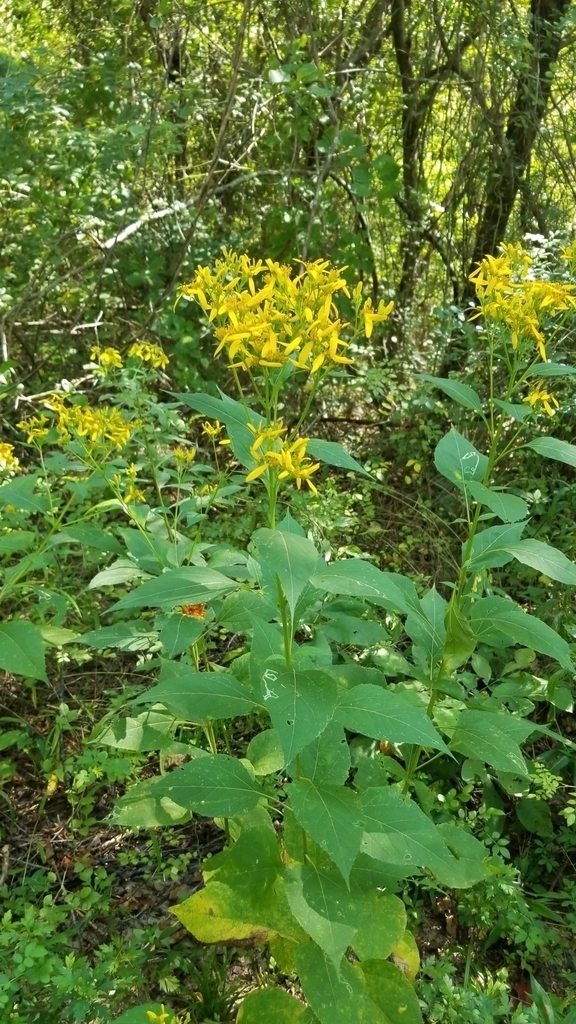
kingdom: Plantae
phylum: Tracheophyta
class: Magnoliopsida
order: Asterales
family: Asteraceae
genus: Verbesina
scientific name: Verbesina occidentalis
